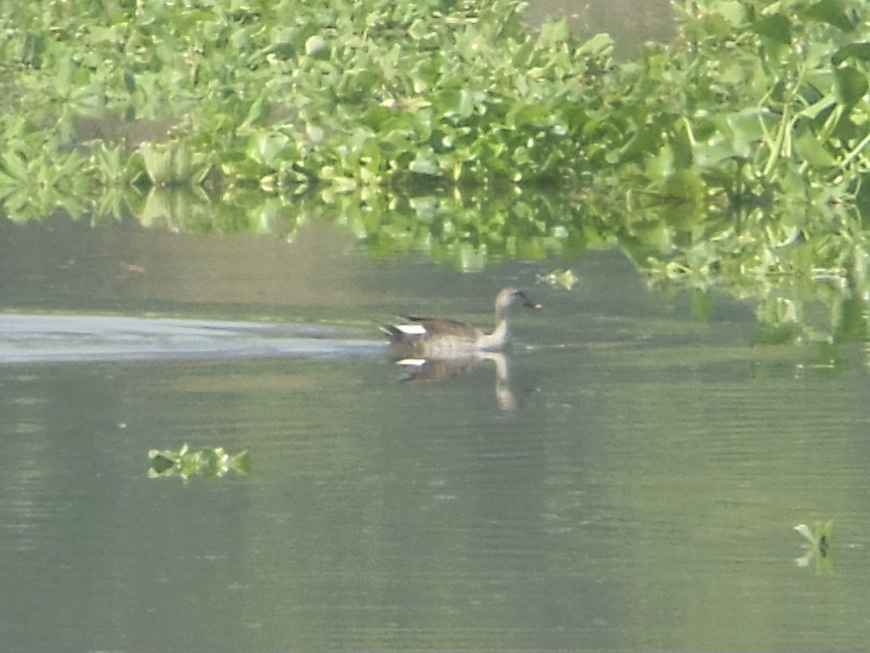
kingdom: Animalia
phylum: Chordata
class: Aves
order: Anseriformes
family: Anatidae
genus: Anas
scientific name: Anas poecilorhyncha
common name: Indian spot-billed duck
